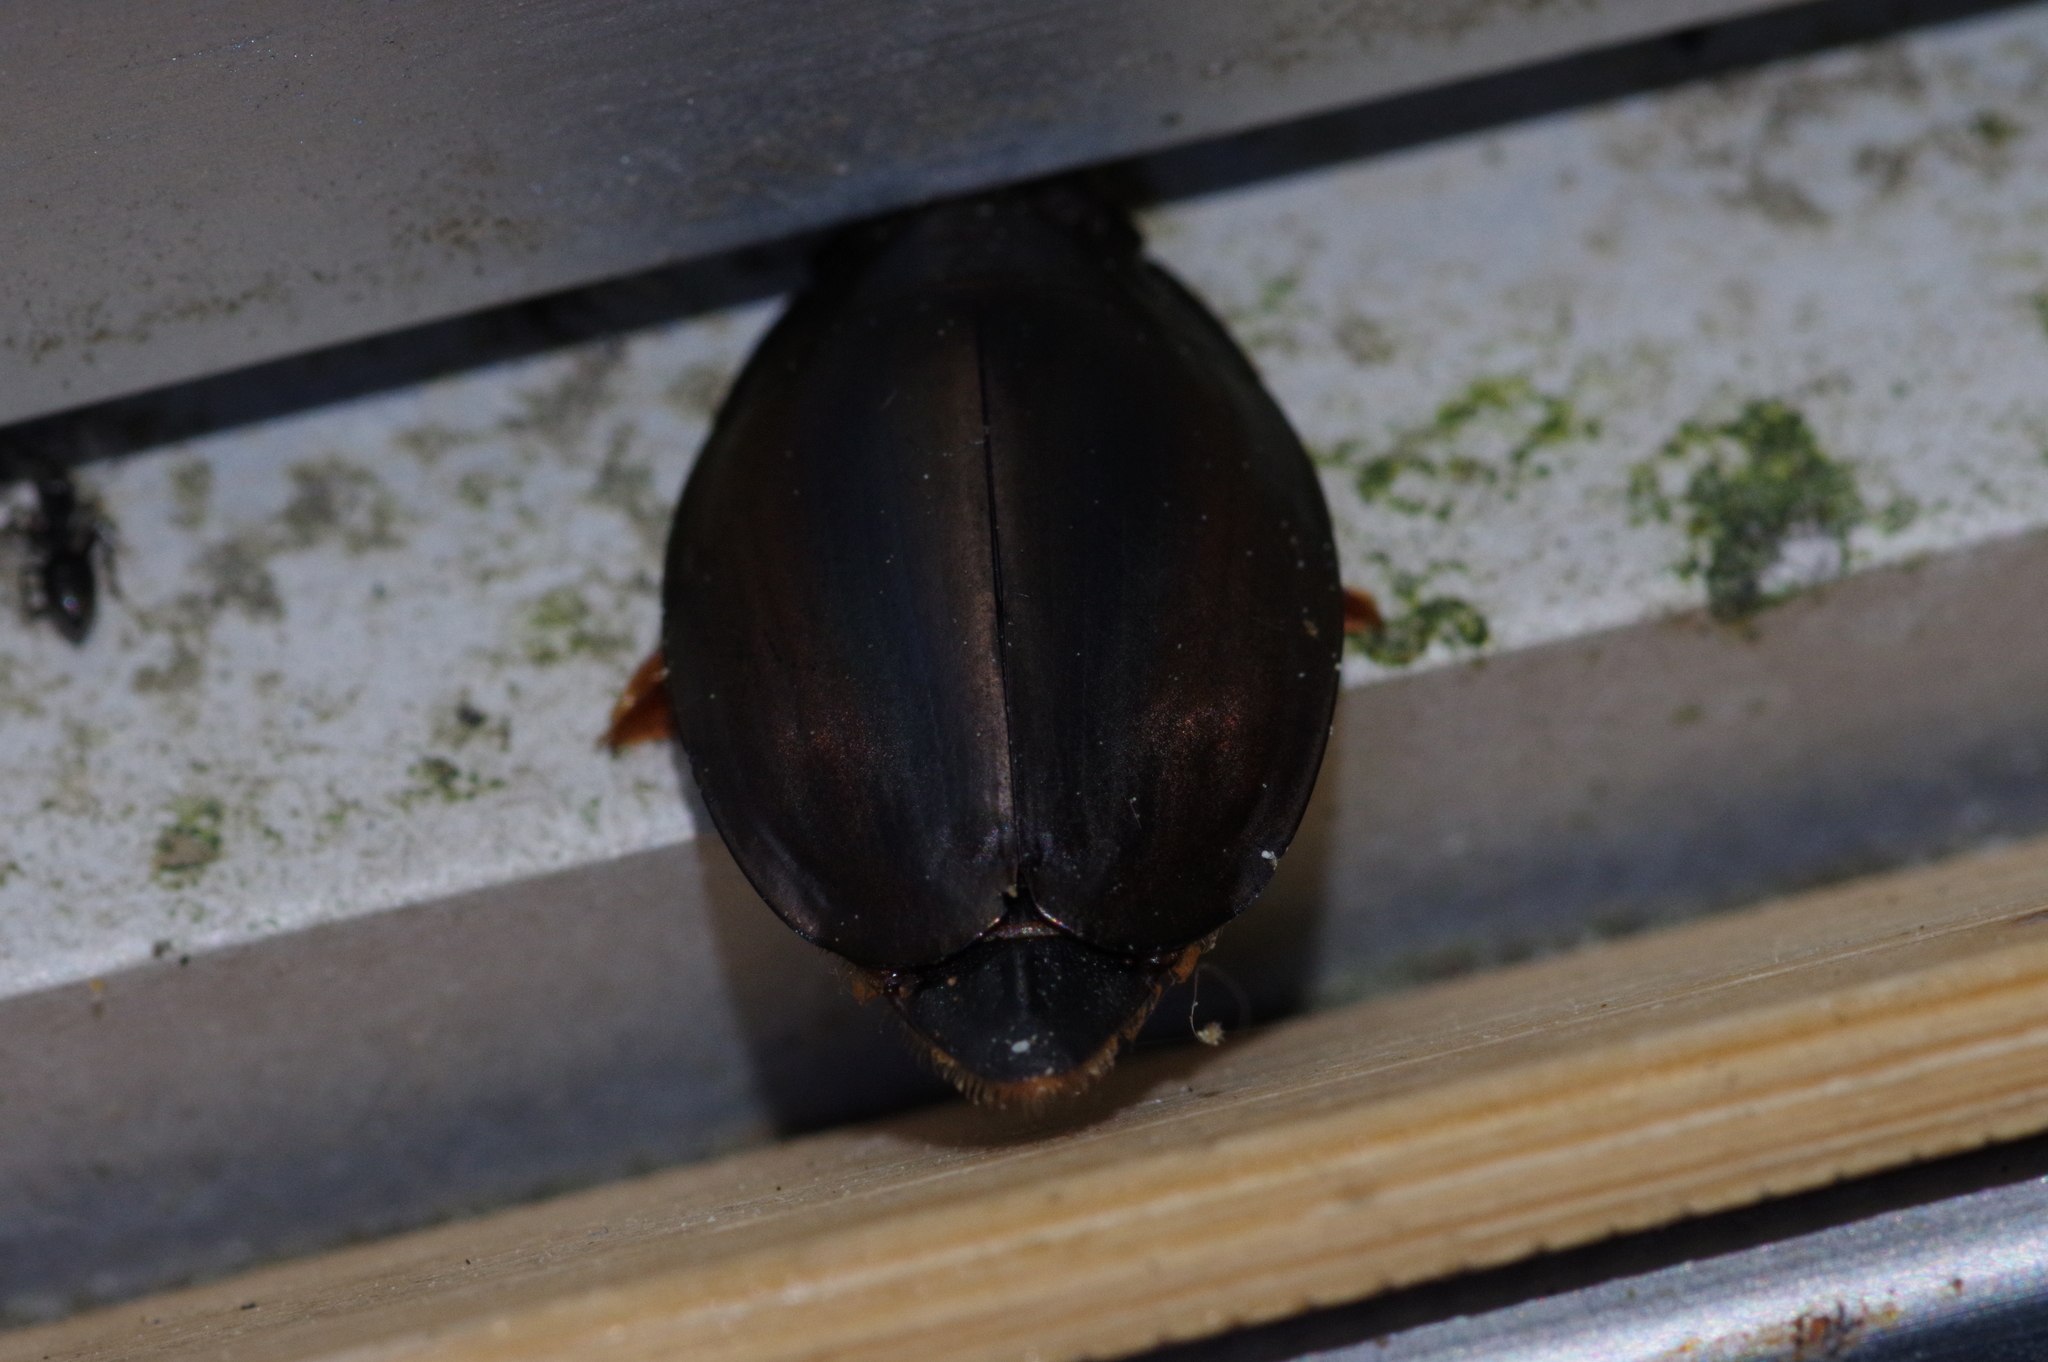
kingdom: Animalia
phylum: Arthropoda
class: Insecta
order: Coleoptera
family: Gyrinidae
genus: Dineutus
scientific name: Dineutus mellyi
